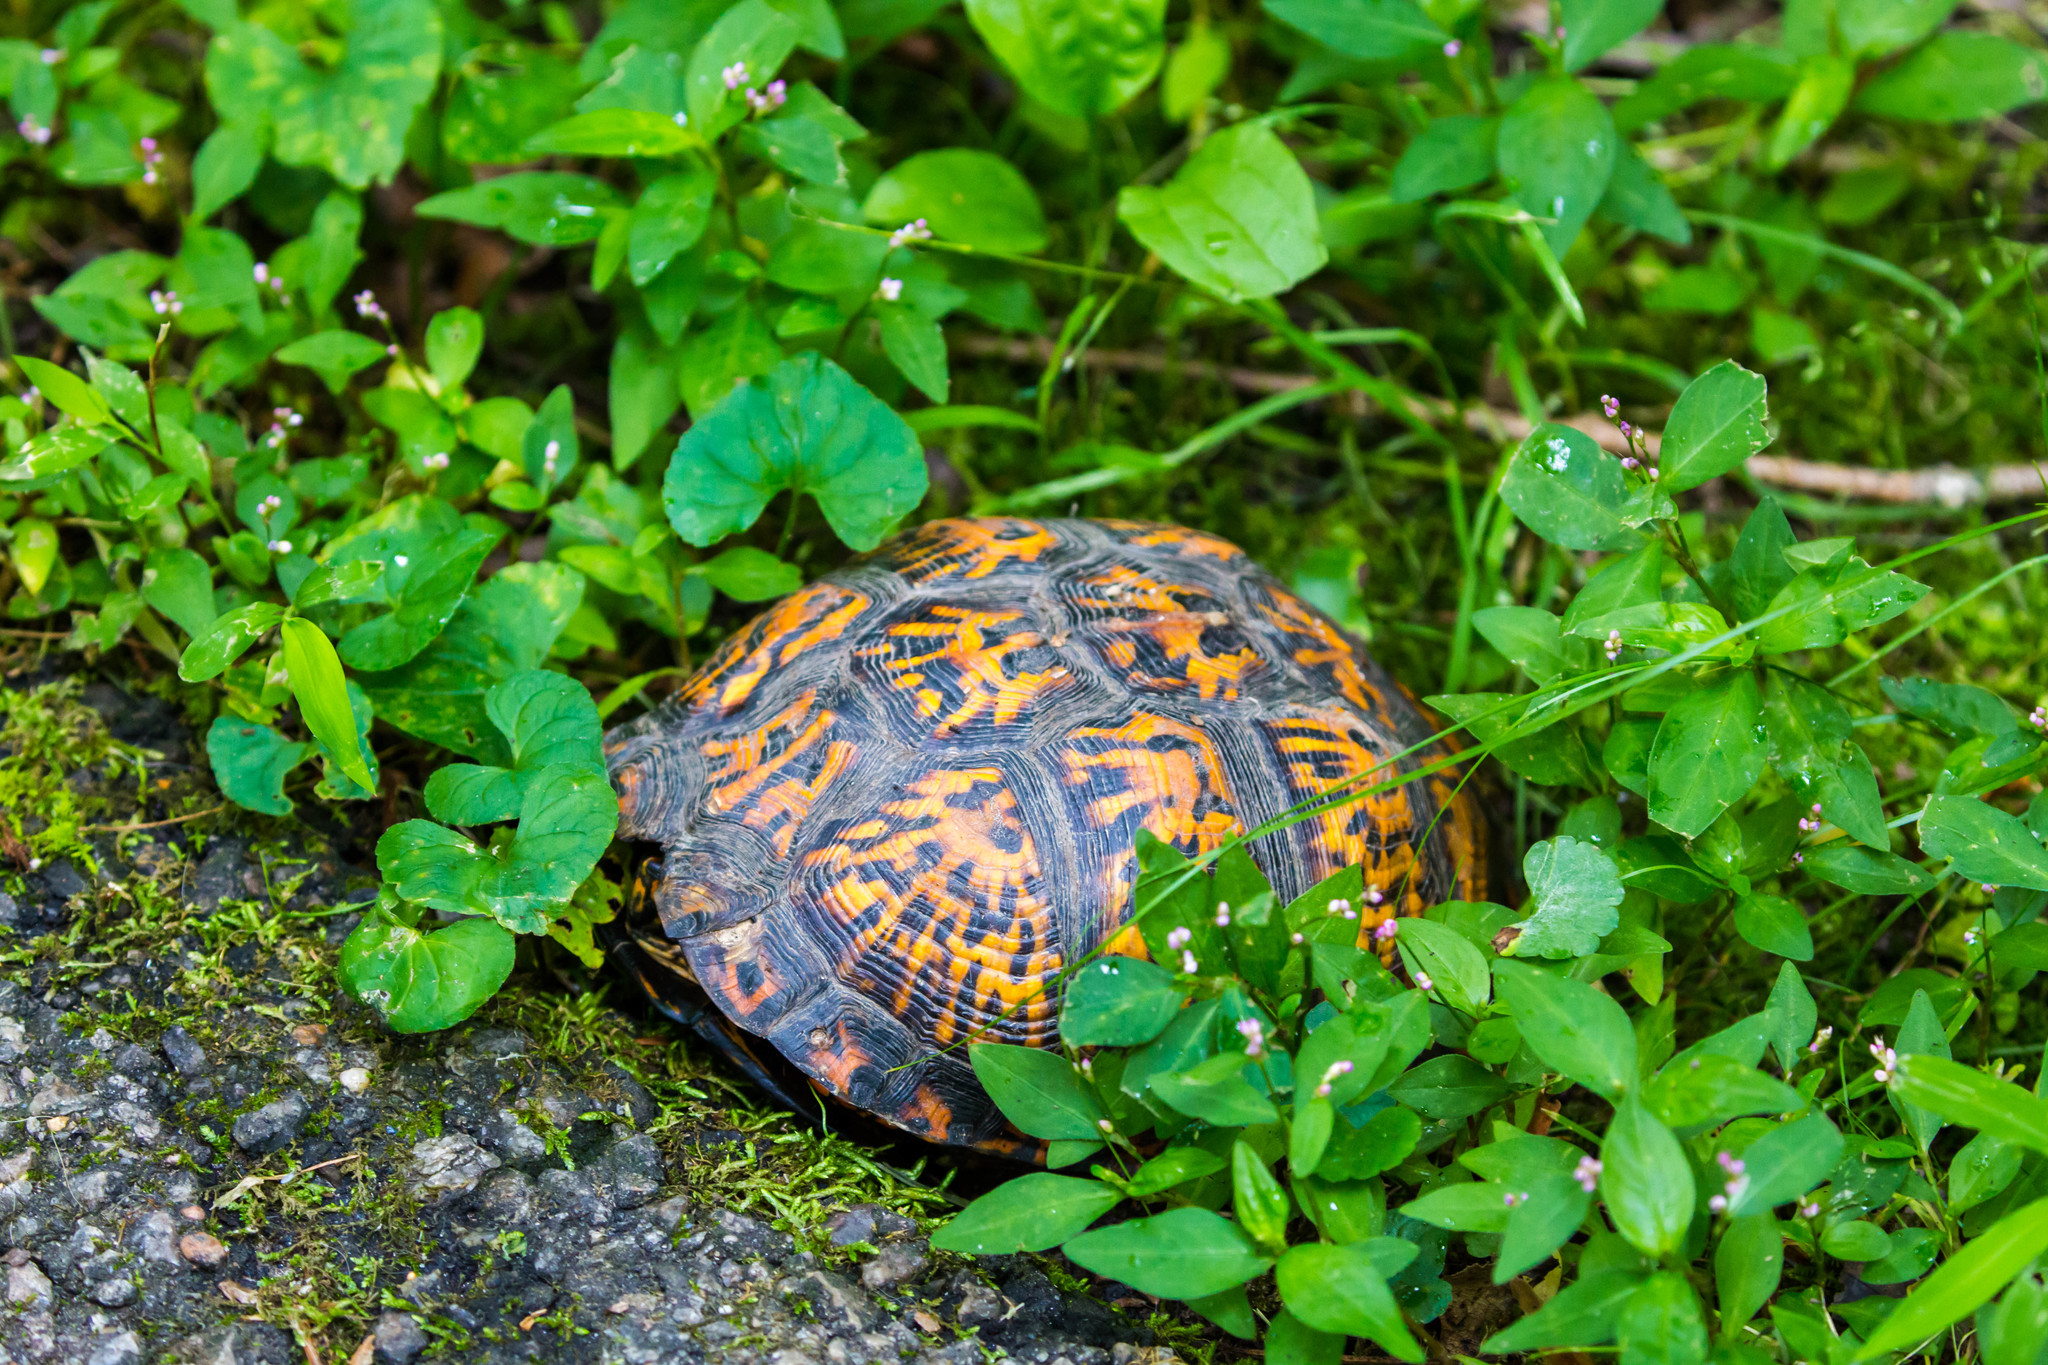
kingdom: Animalia
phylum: Chordata
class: Testudines
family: Emydidae
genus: Terrapene
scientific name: Terrapene carolina
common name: Common box turtle
